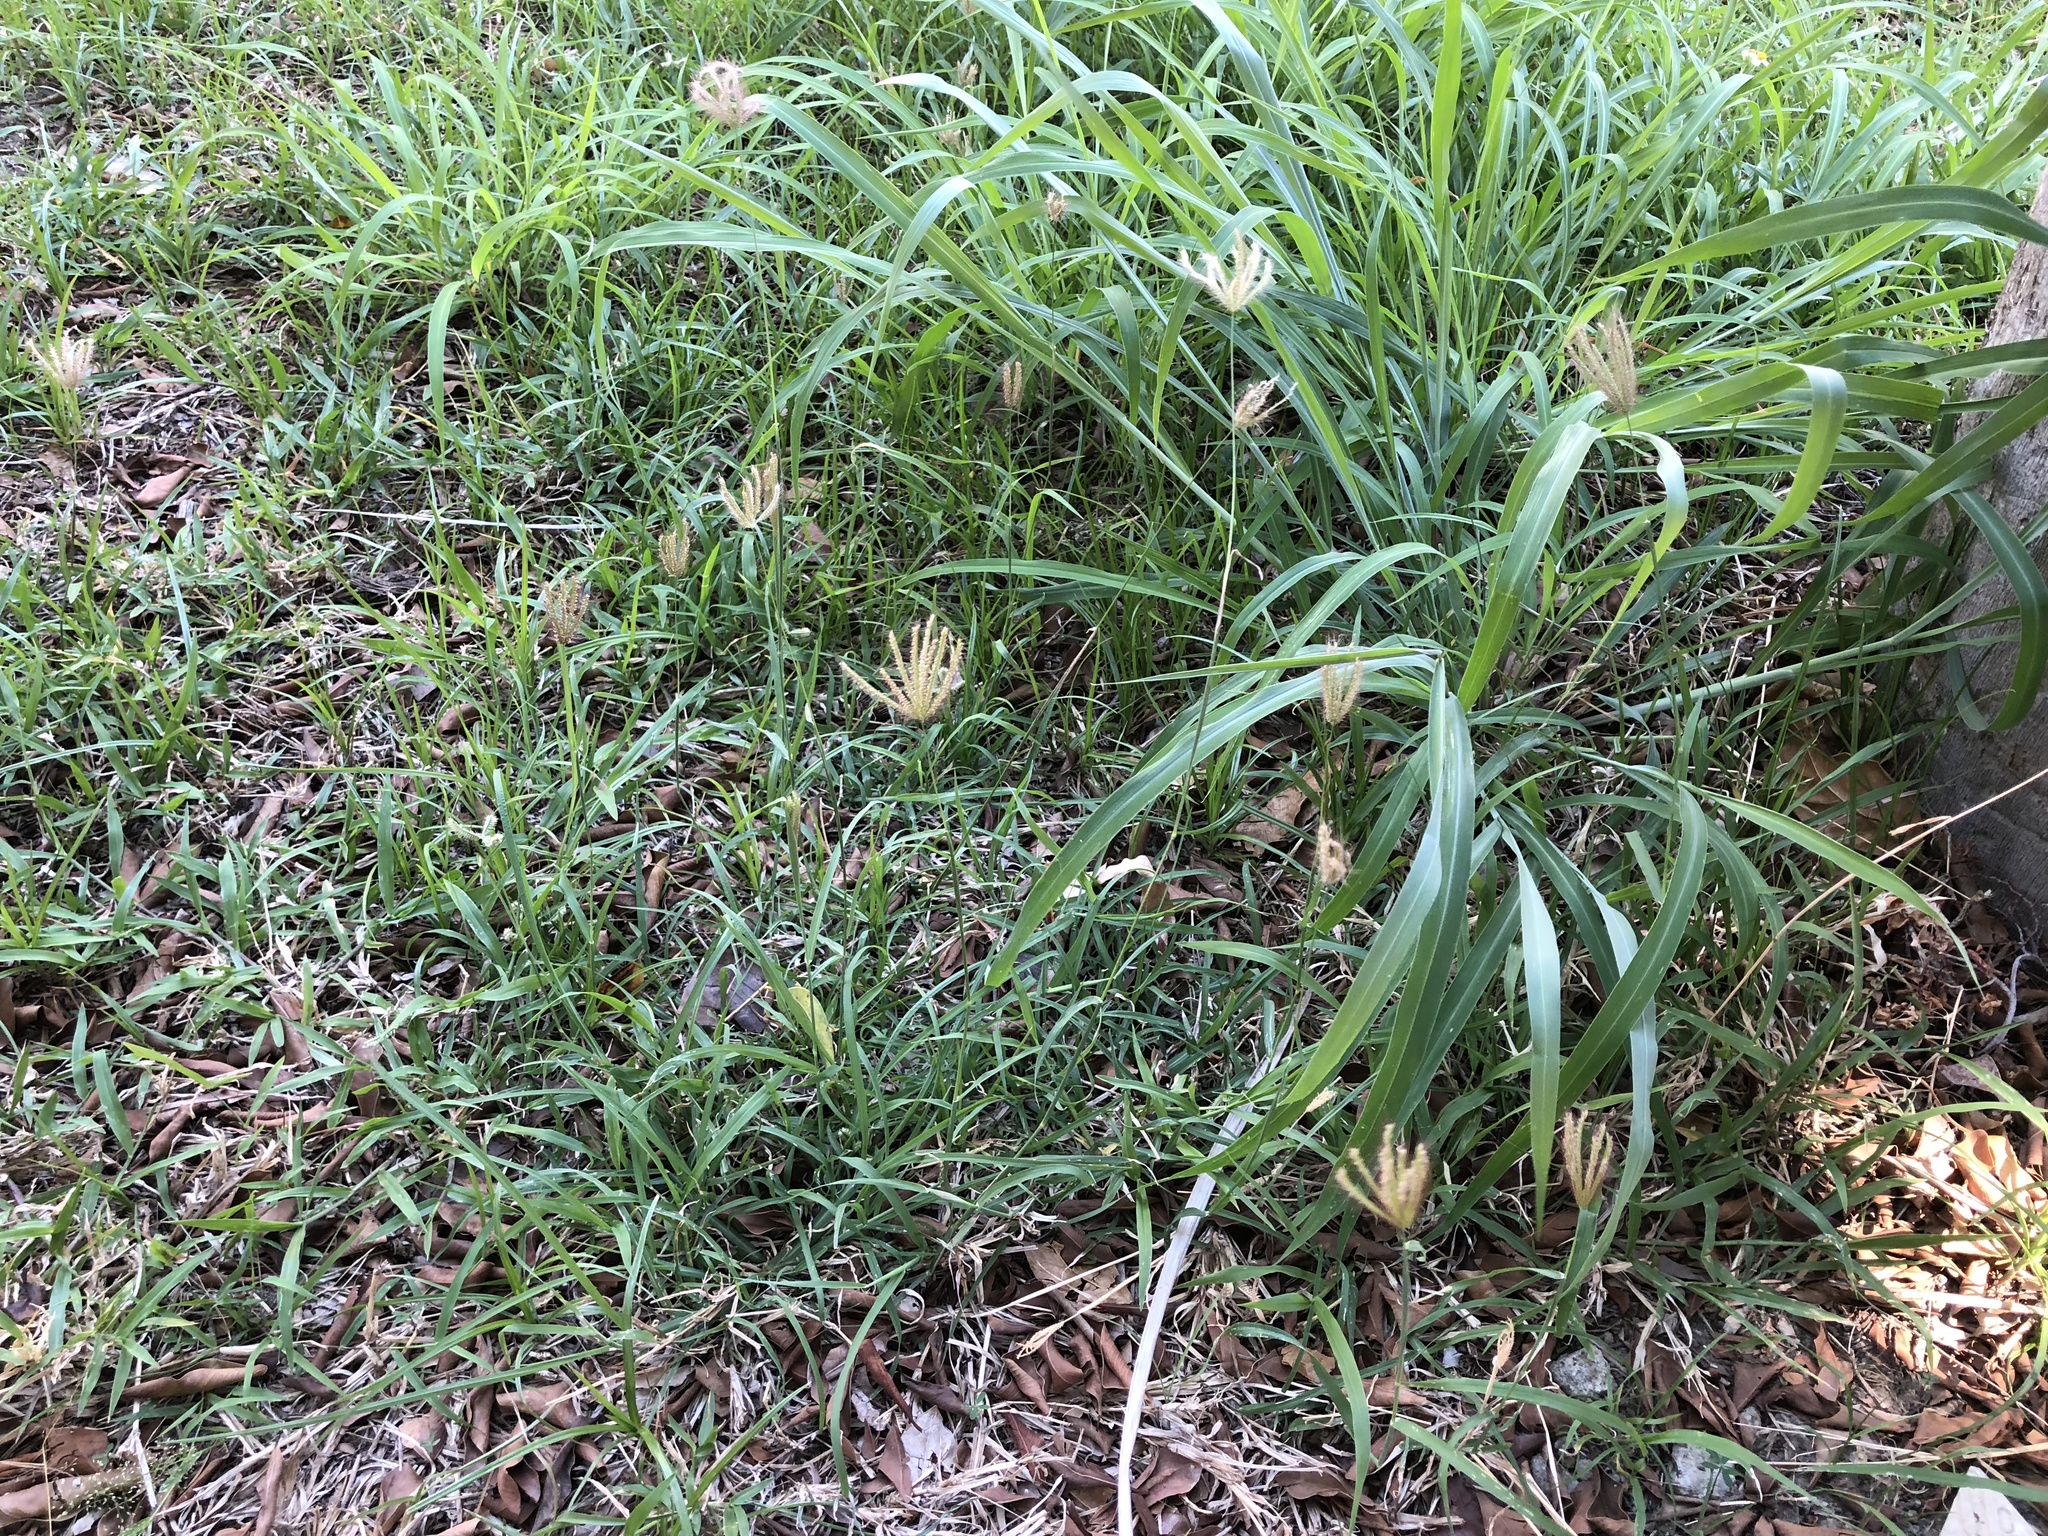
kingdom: Plantae
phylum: Tracheophyta
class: Liliopsida
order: Poales
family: Poaceae
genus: Chloris
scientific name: Chloris barbata
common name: Swollen fingergrass
